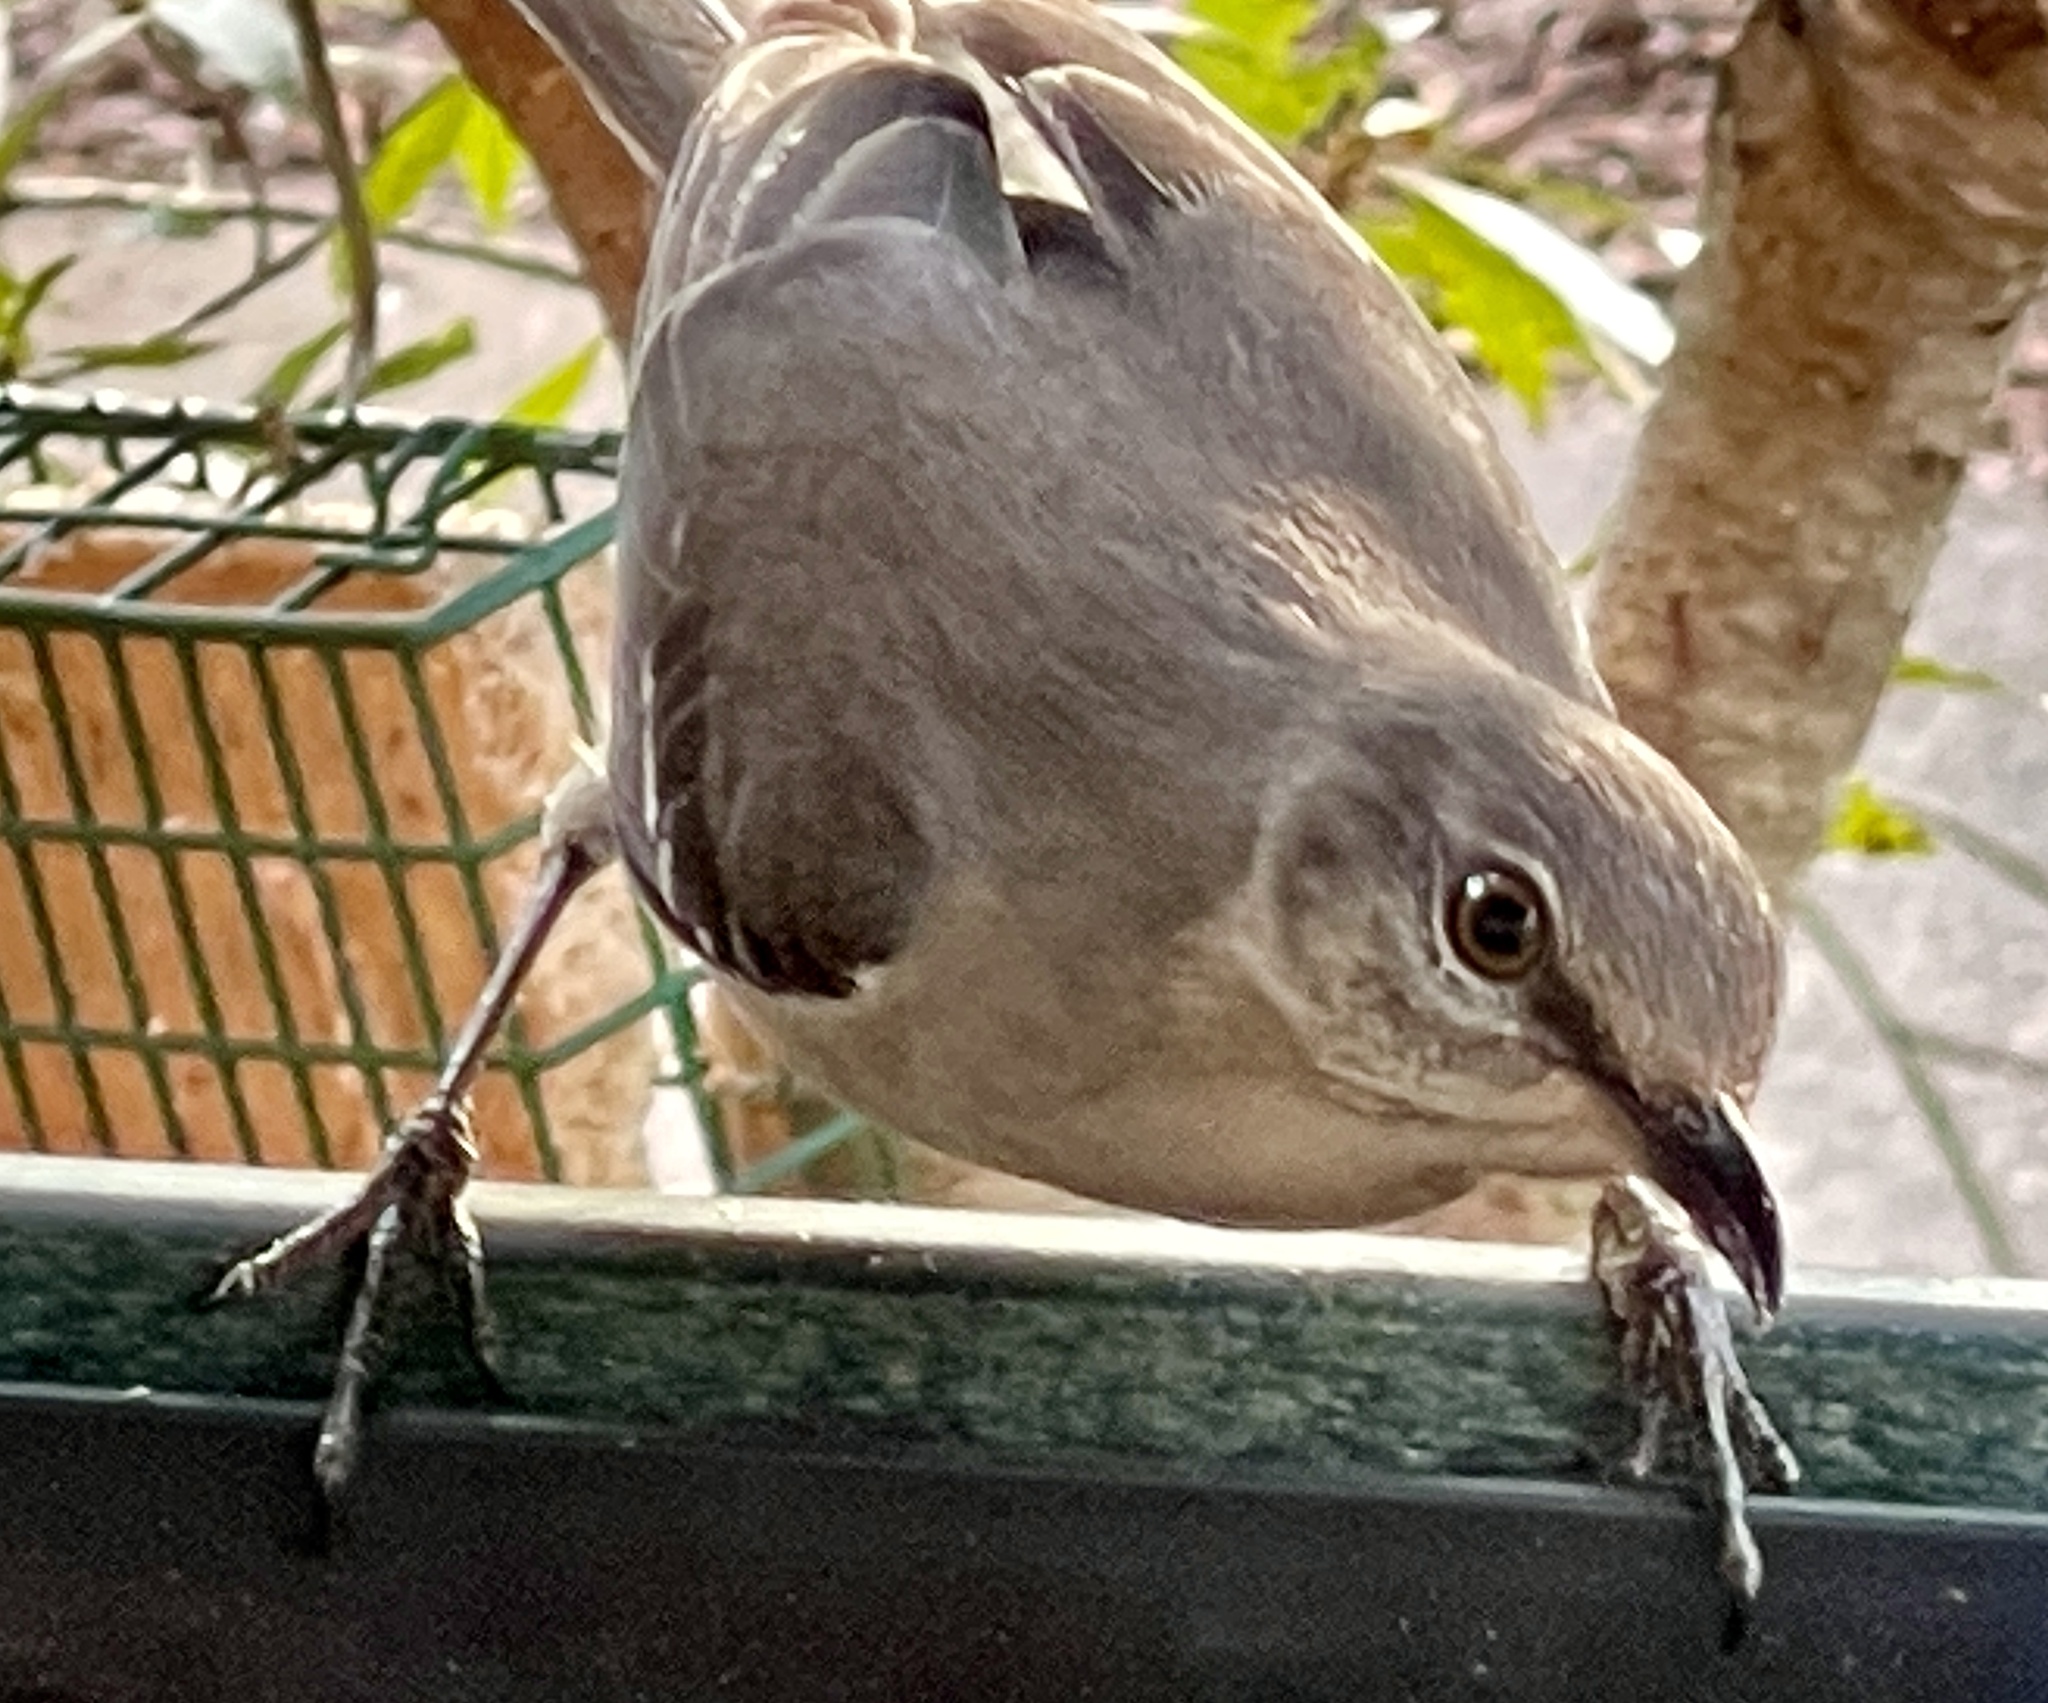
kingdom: Animalia
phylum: Chordata
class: Aves
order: Passeriformes
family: Mimidae
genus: Mimus
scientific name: Mimus polyglottos
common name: Northern mockingbird
